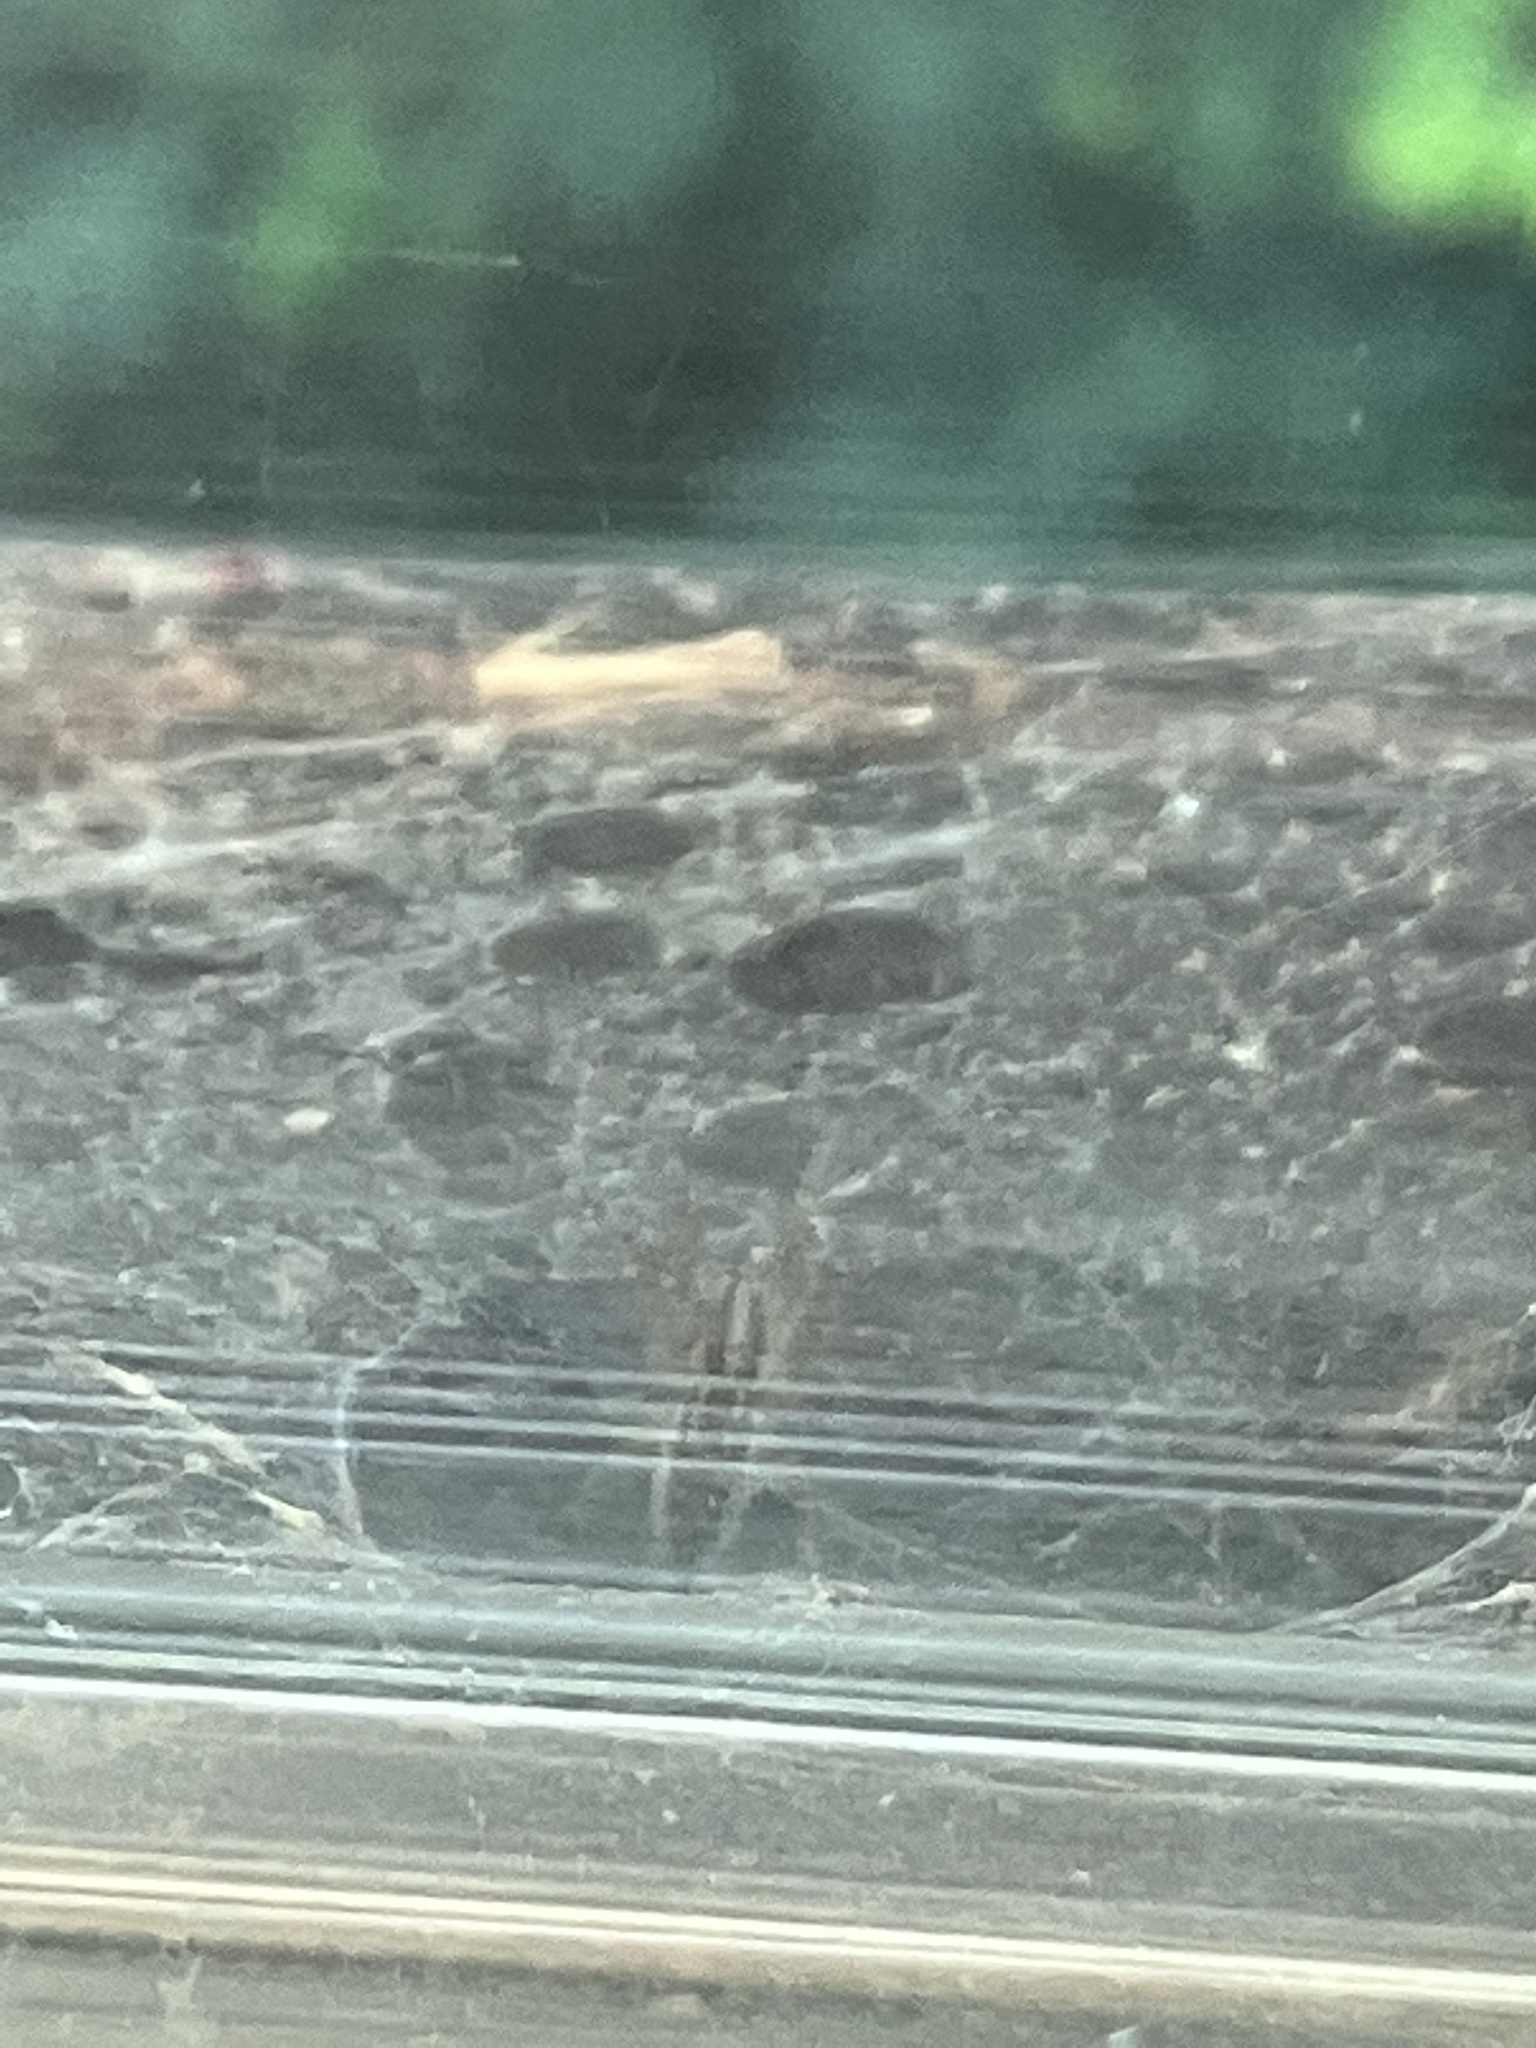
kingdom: Animalia
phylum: Arthropoda
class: Arachnida
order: Araneae
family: Agelenidae
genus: Agelenopsis
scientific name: Agelenopsis
